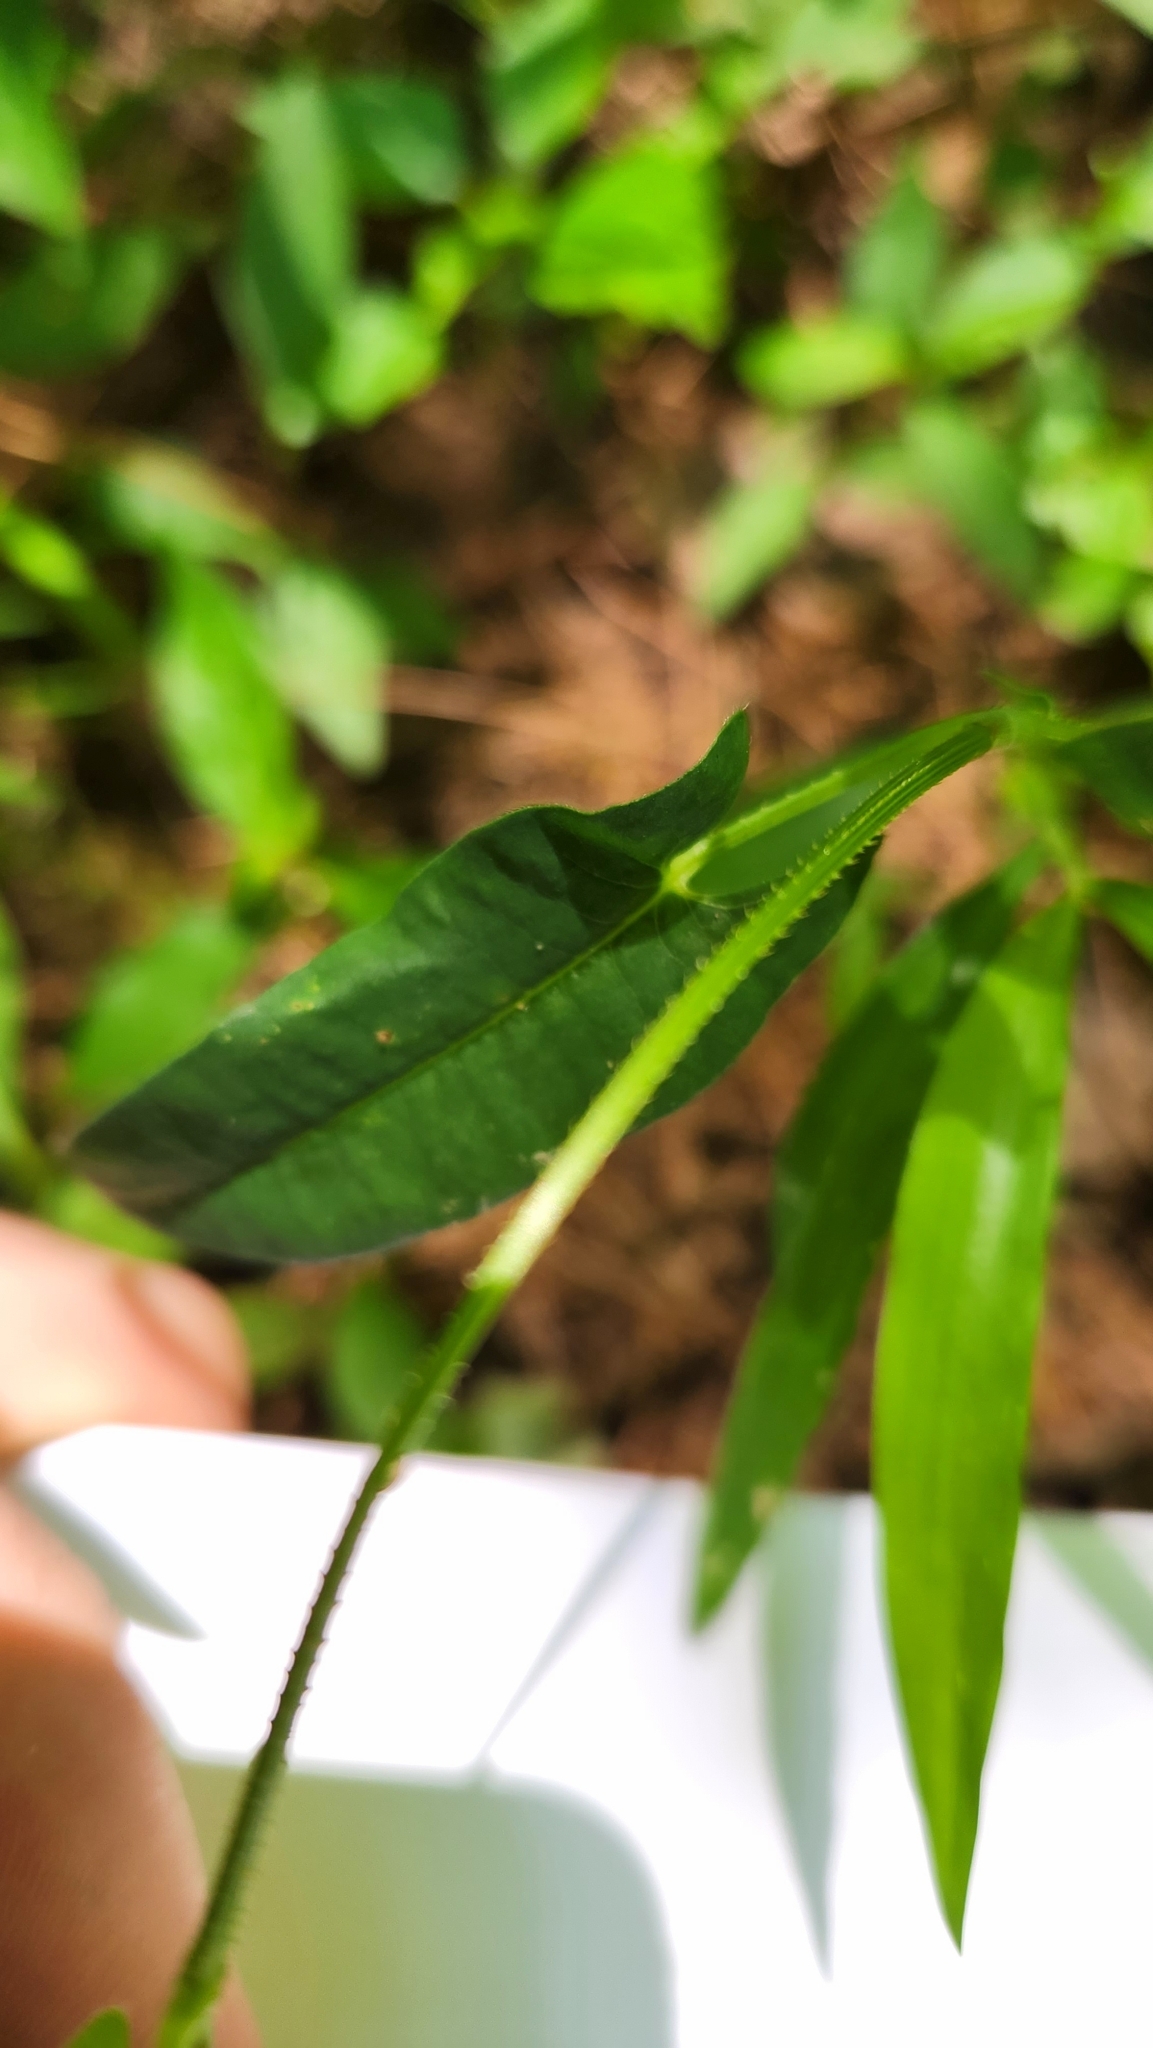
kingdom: Plantae
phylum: Tracheophyta
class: Magnoliopsida
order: Caryophyllales
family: Polygonaceae
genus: Persicaria
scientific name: Persicaria sagittata
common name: American tearthumb
